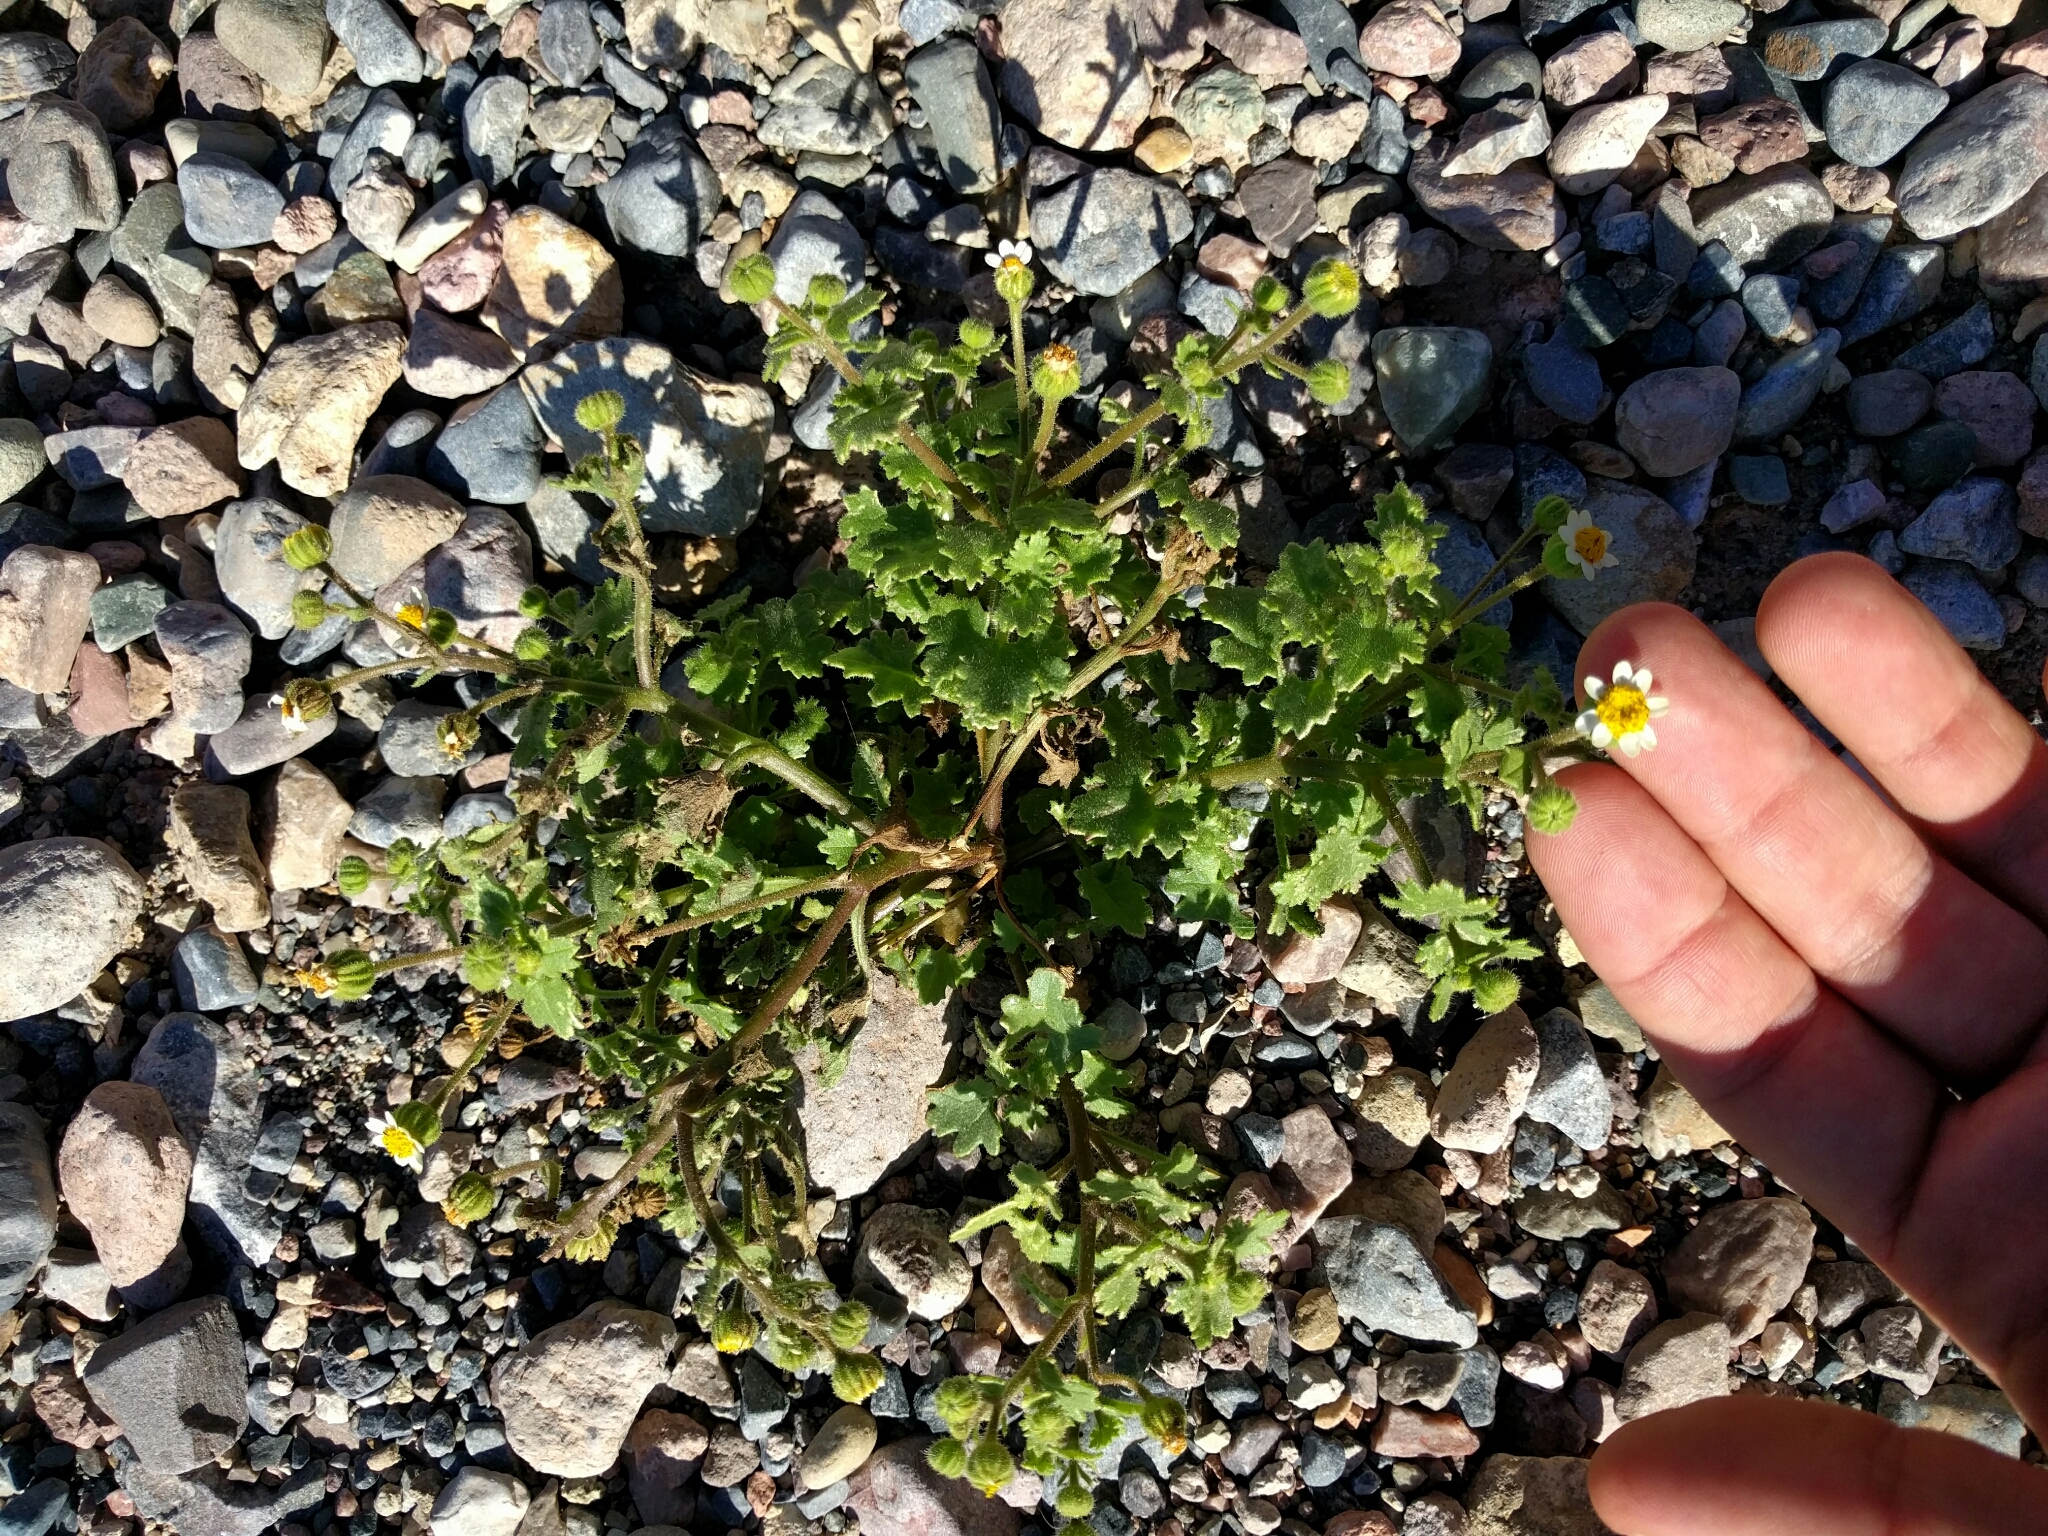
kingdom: Plantae
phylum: Tracheophyta
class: Magnoliopsida
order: Asterales
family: Asteraceae
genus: Laphamia
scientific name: Laphamia emoryi
